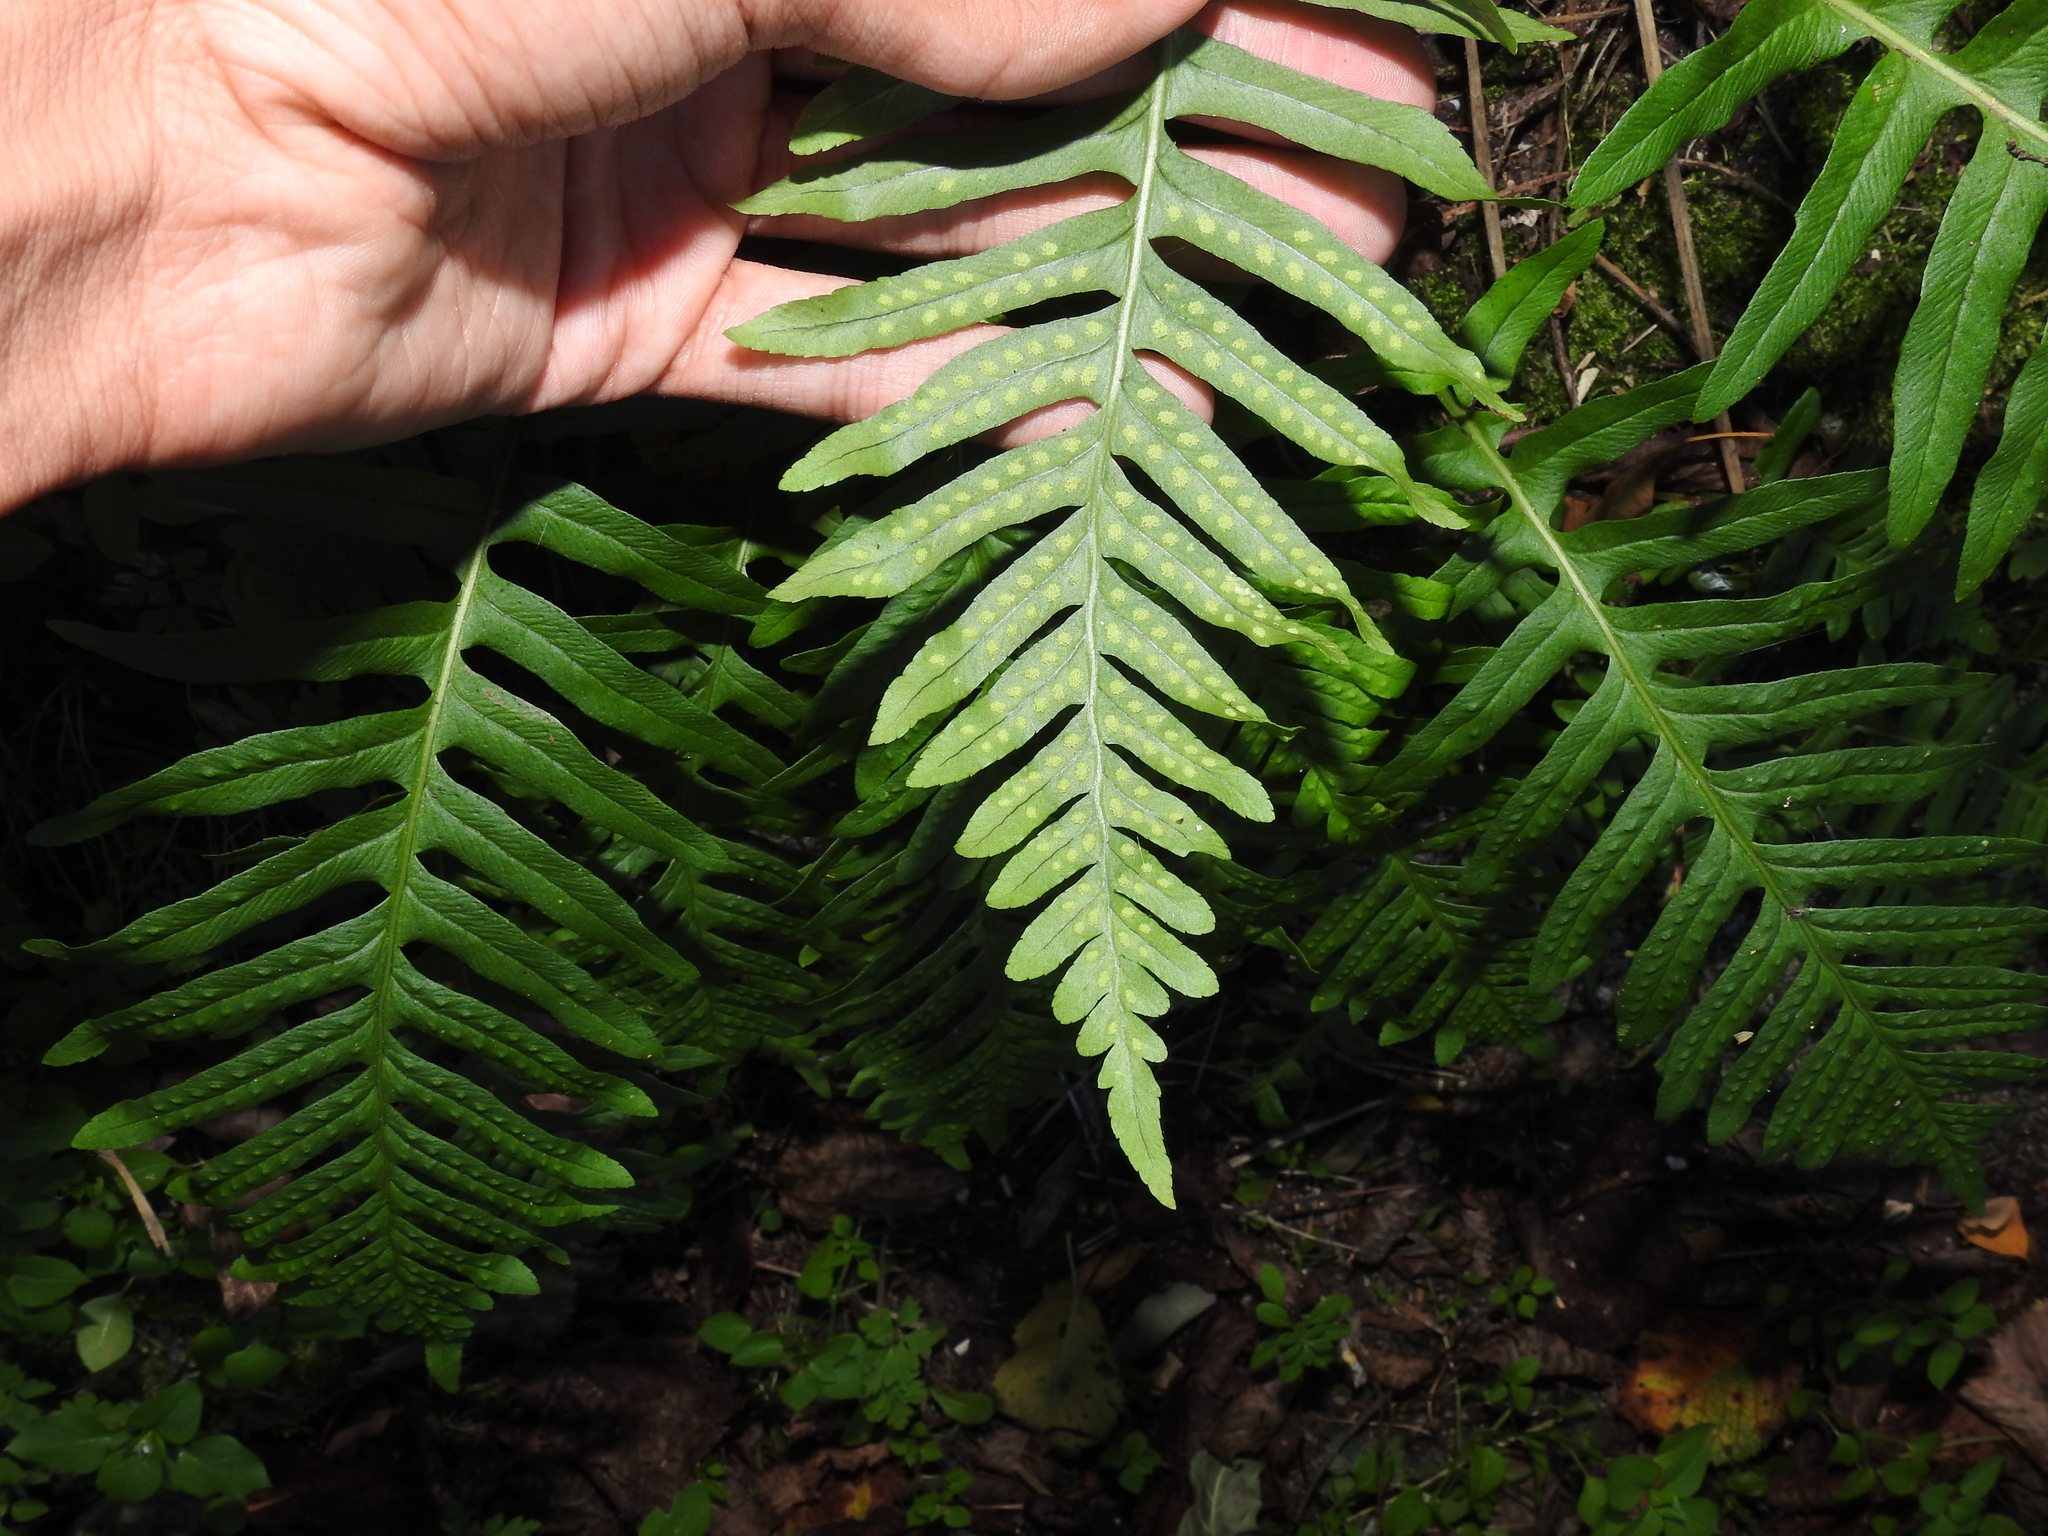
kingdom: Plantae
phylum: Tracheophyta
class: Polypodiopsida
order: Polypodiales
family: Polypodiaceae
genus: Polypodium
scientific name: Polypodium vulgare
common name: Common polypody
